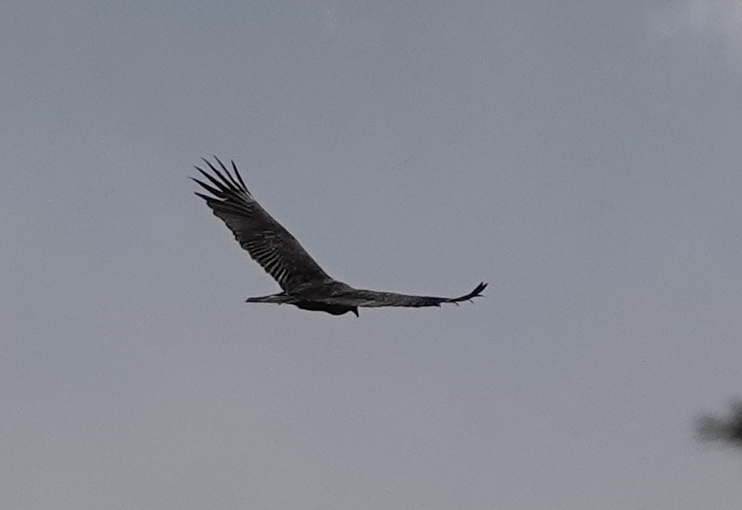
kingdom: Animalia
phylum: Chordata
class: Aves
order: Accipitriformes
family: Cathartidae
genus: Cathartes
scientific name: Cathartes aura
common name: Turkey vulture
